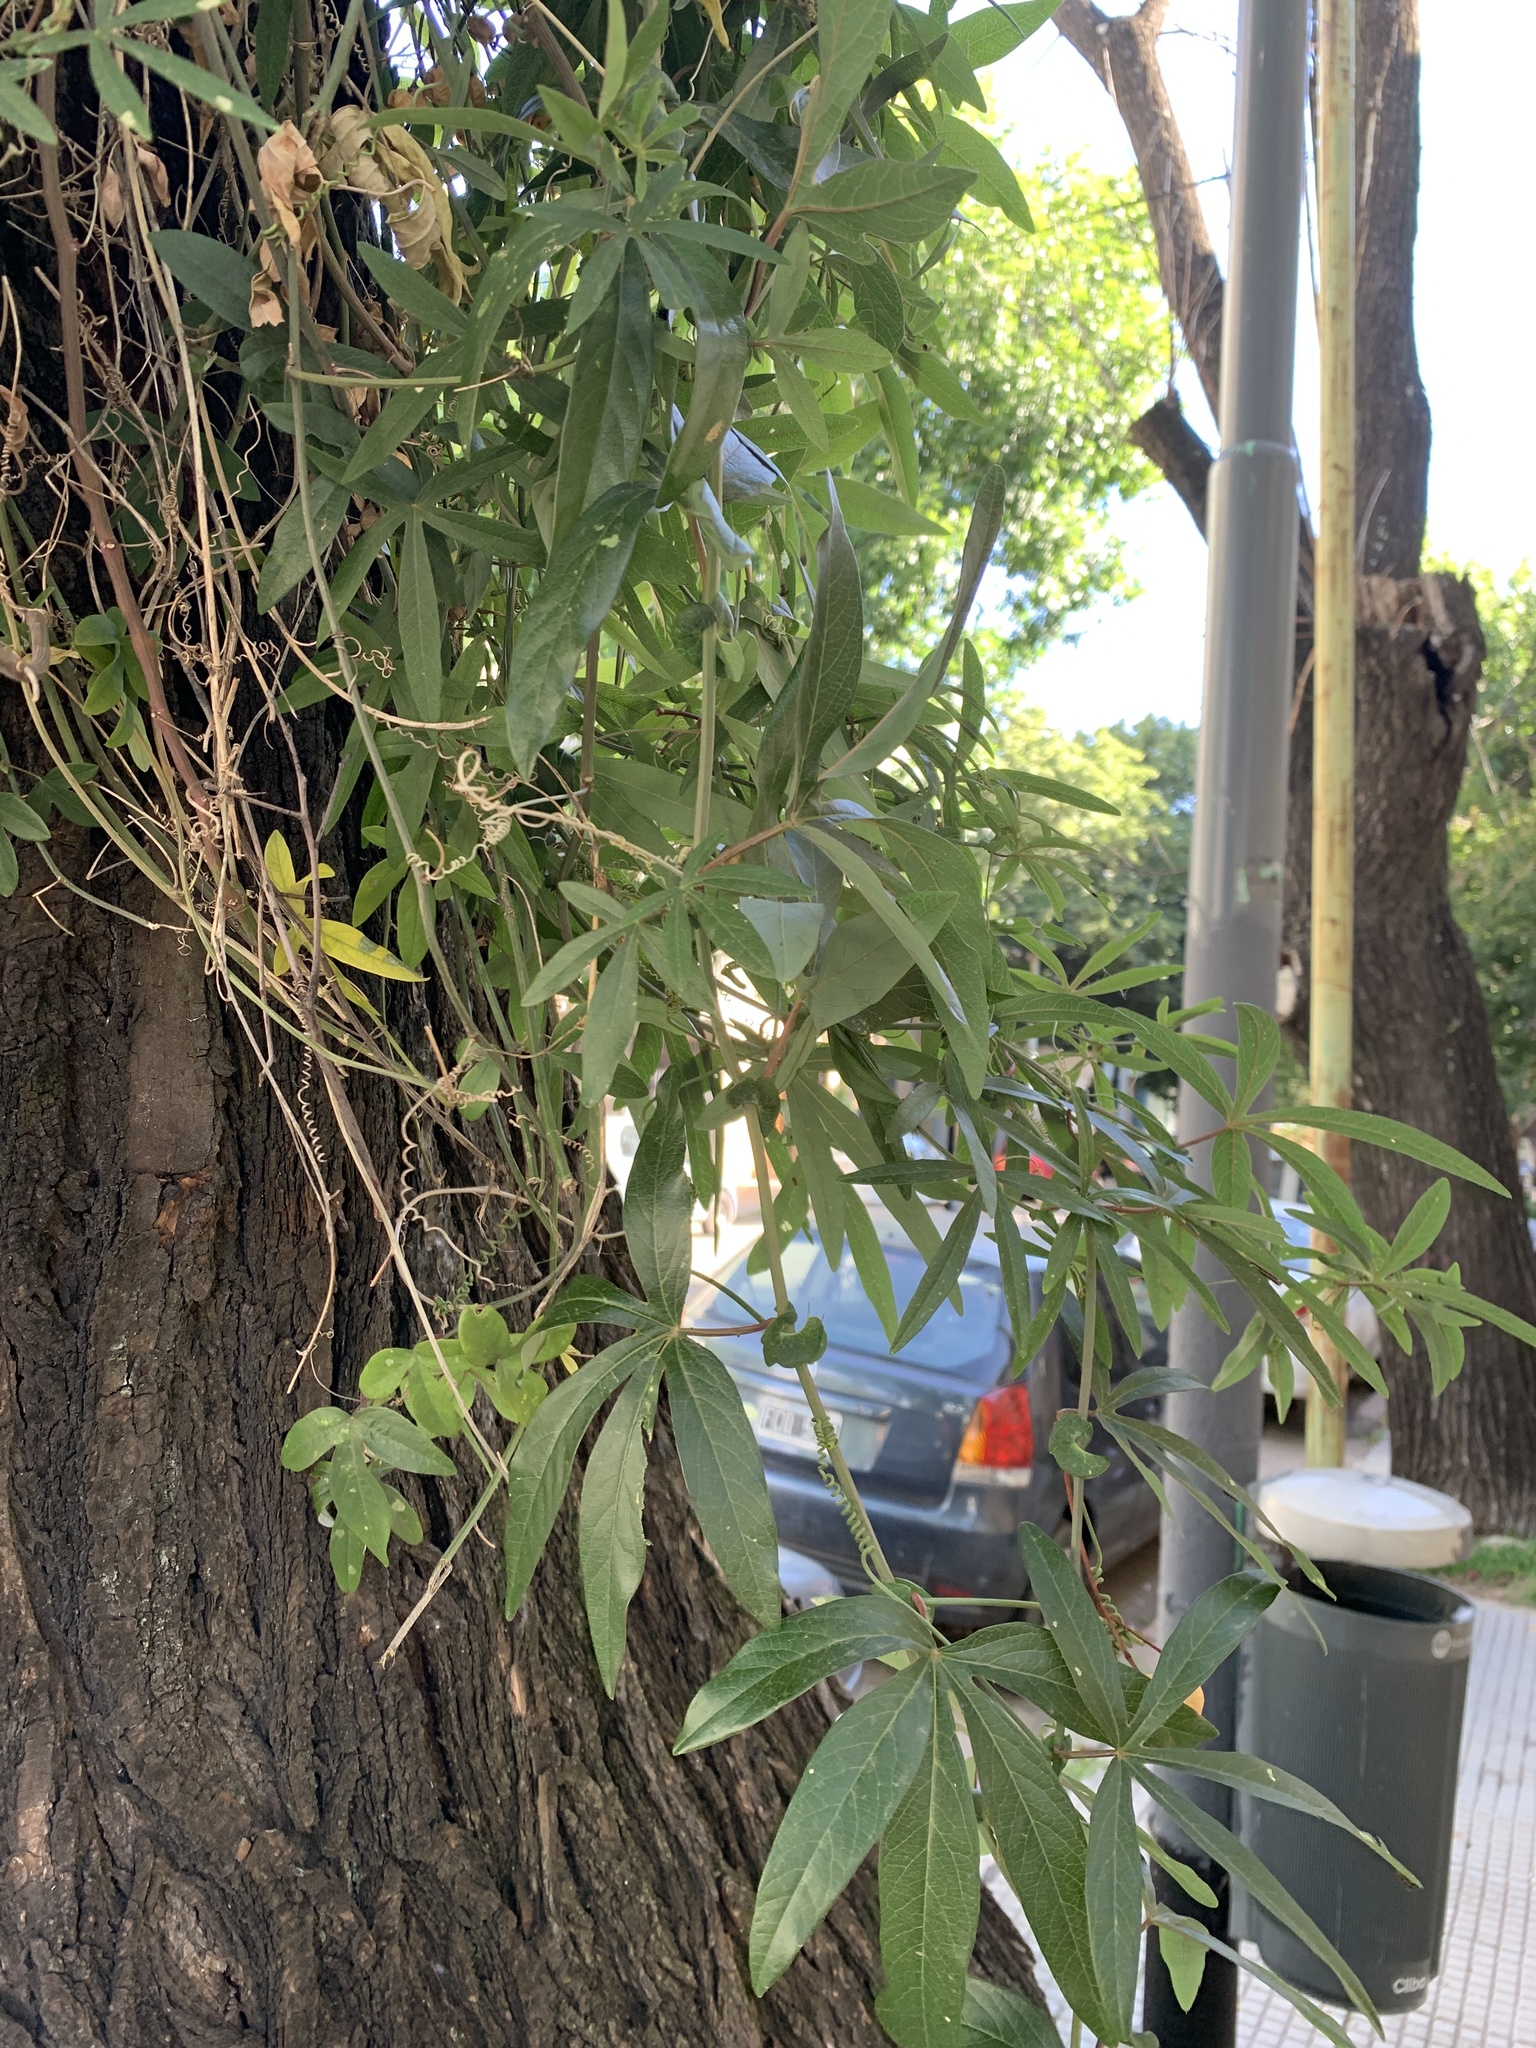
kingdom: Plantae
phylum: Tracheophyta
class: Magnoliopsida
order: Malpighiales
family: Passifloraceae
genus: Passiflora
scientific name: Passiflora caerulea
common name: Blue passionflower
